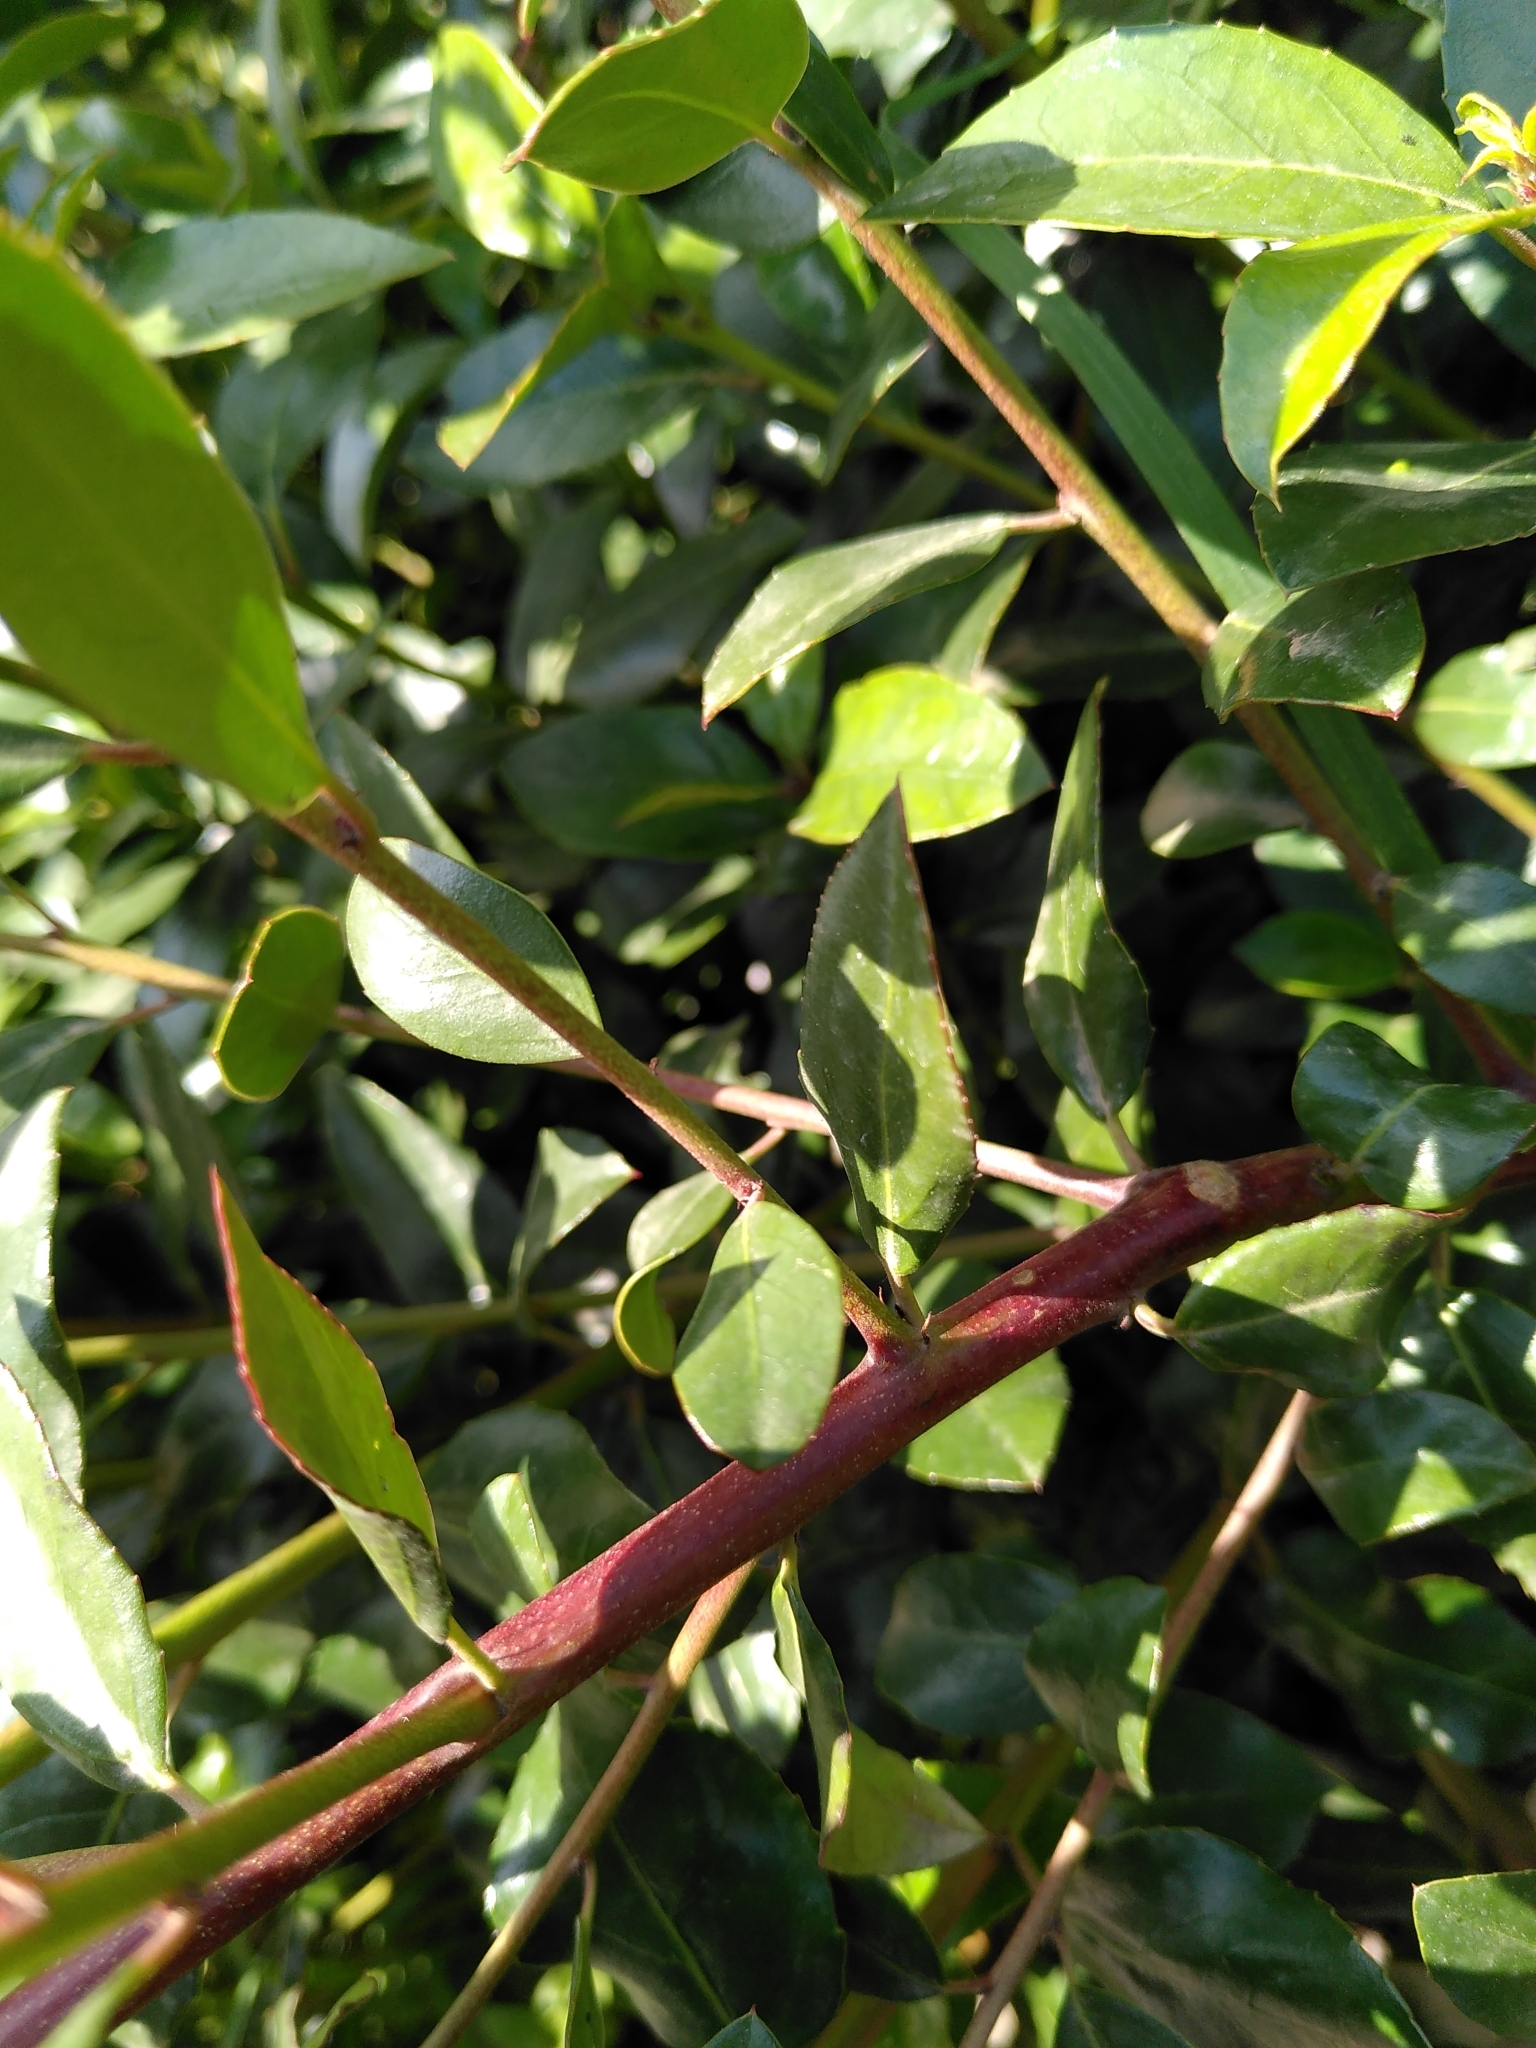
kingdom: Plantae
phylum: Tracheophyta
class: Magnoliopsida
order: Rosales
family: Rhamnaceae
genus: Rhamnus
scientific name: Rhamnus alaternus
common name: Mediterranean buckthorn
